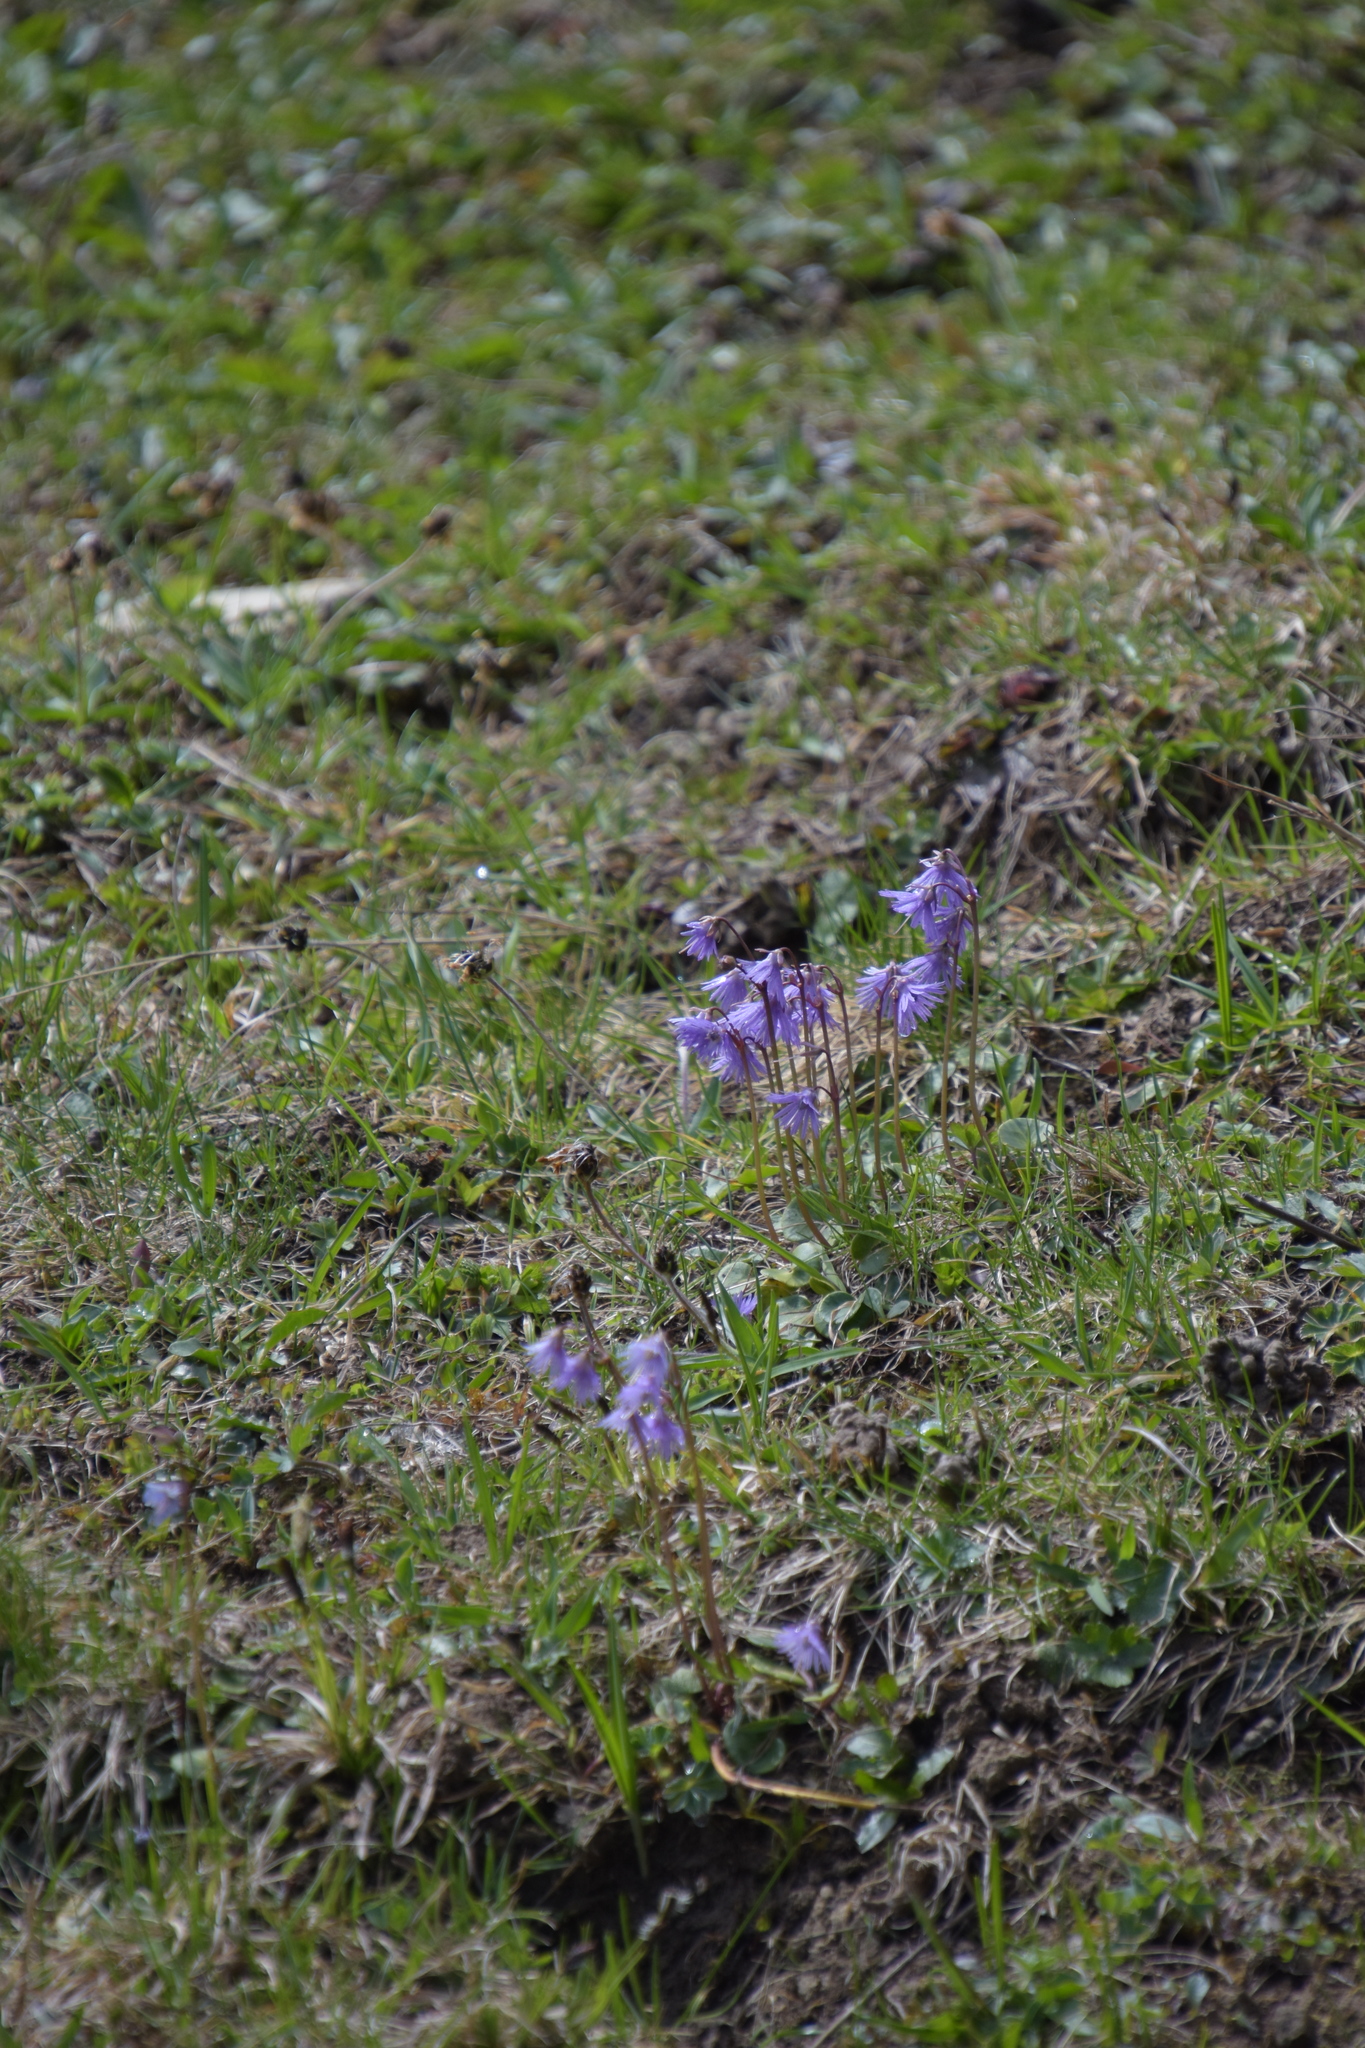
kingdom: Plantae
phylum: Tracheophyta
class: Magnoliopsida
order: Ericales
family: Primulaceae
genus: Soldanella
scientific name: Soldanella alpina
